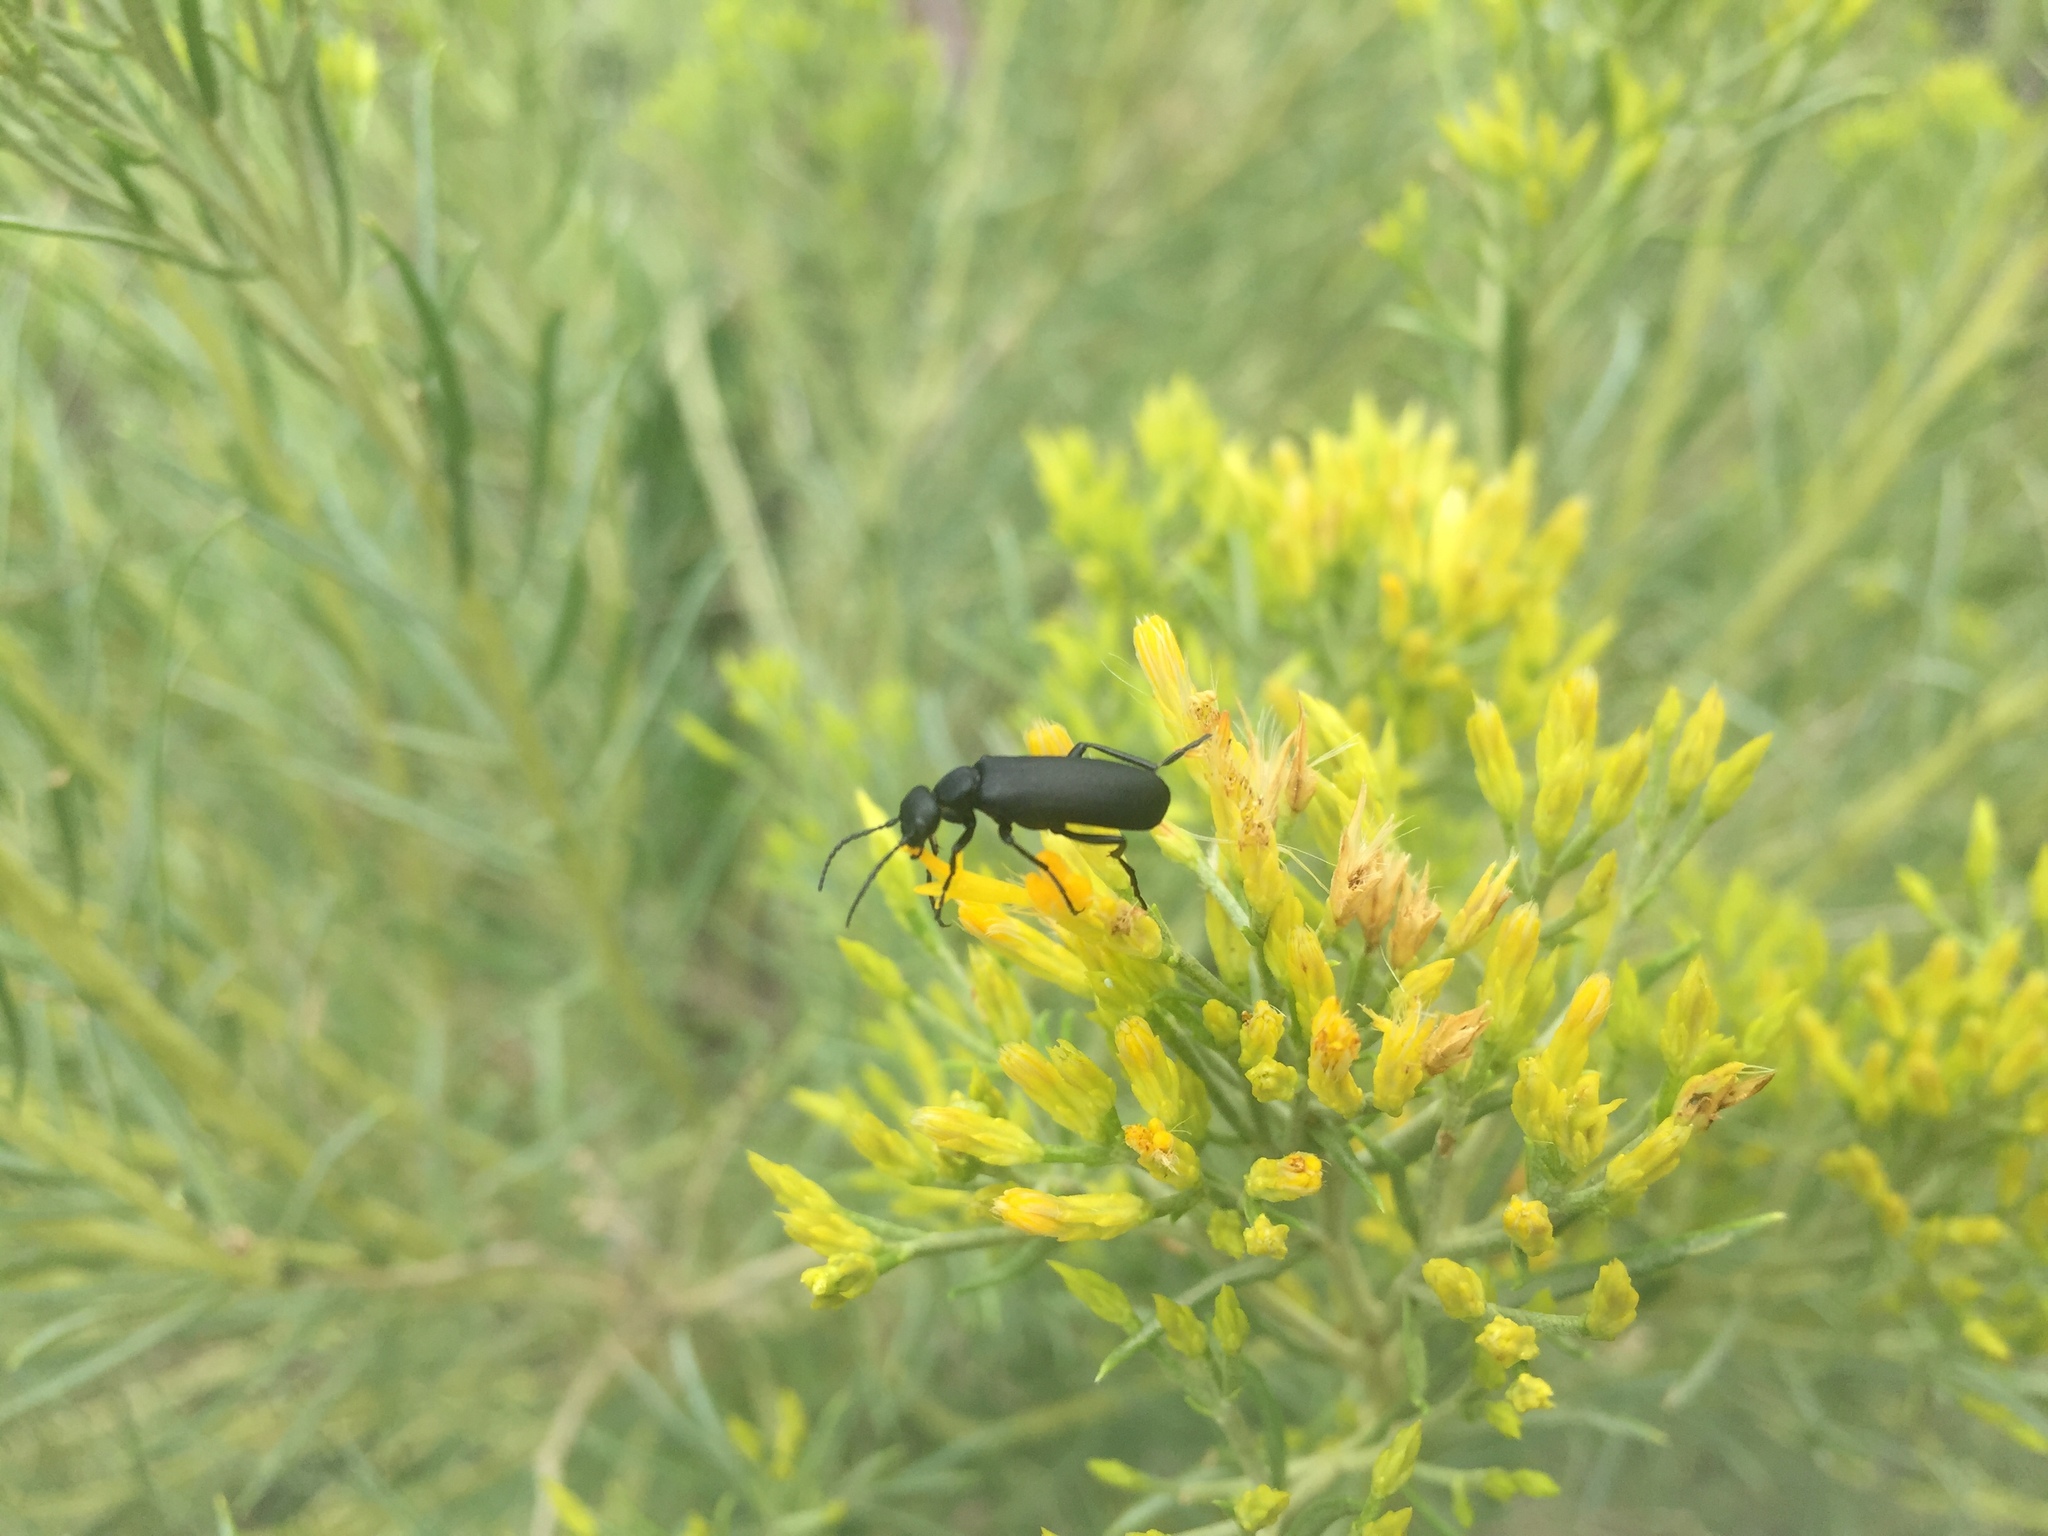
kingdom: Animalia
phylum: Arthropoda
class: Insecta
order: Coleoptera
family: Meloidae
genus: Epicauta
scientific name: Epicauta pensylvanica
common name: Black blister beetle
